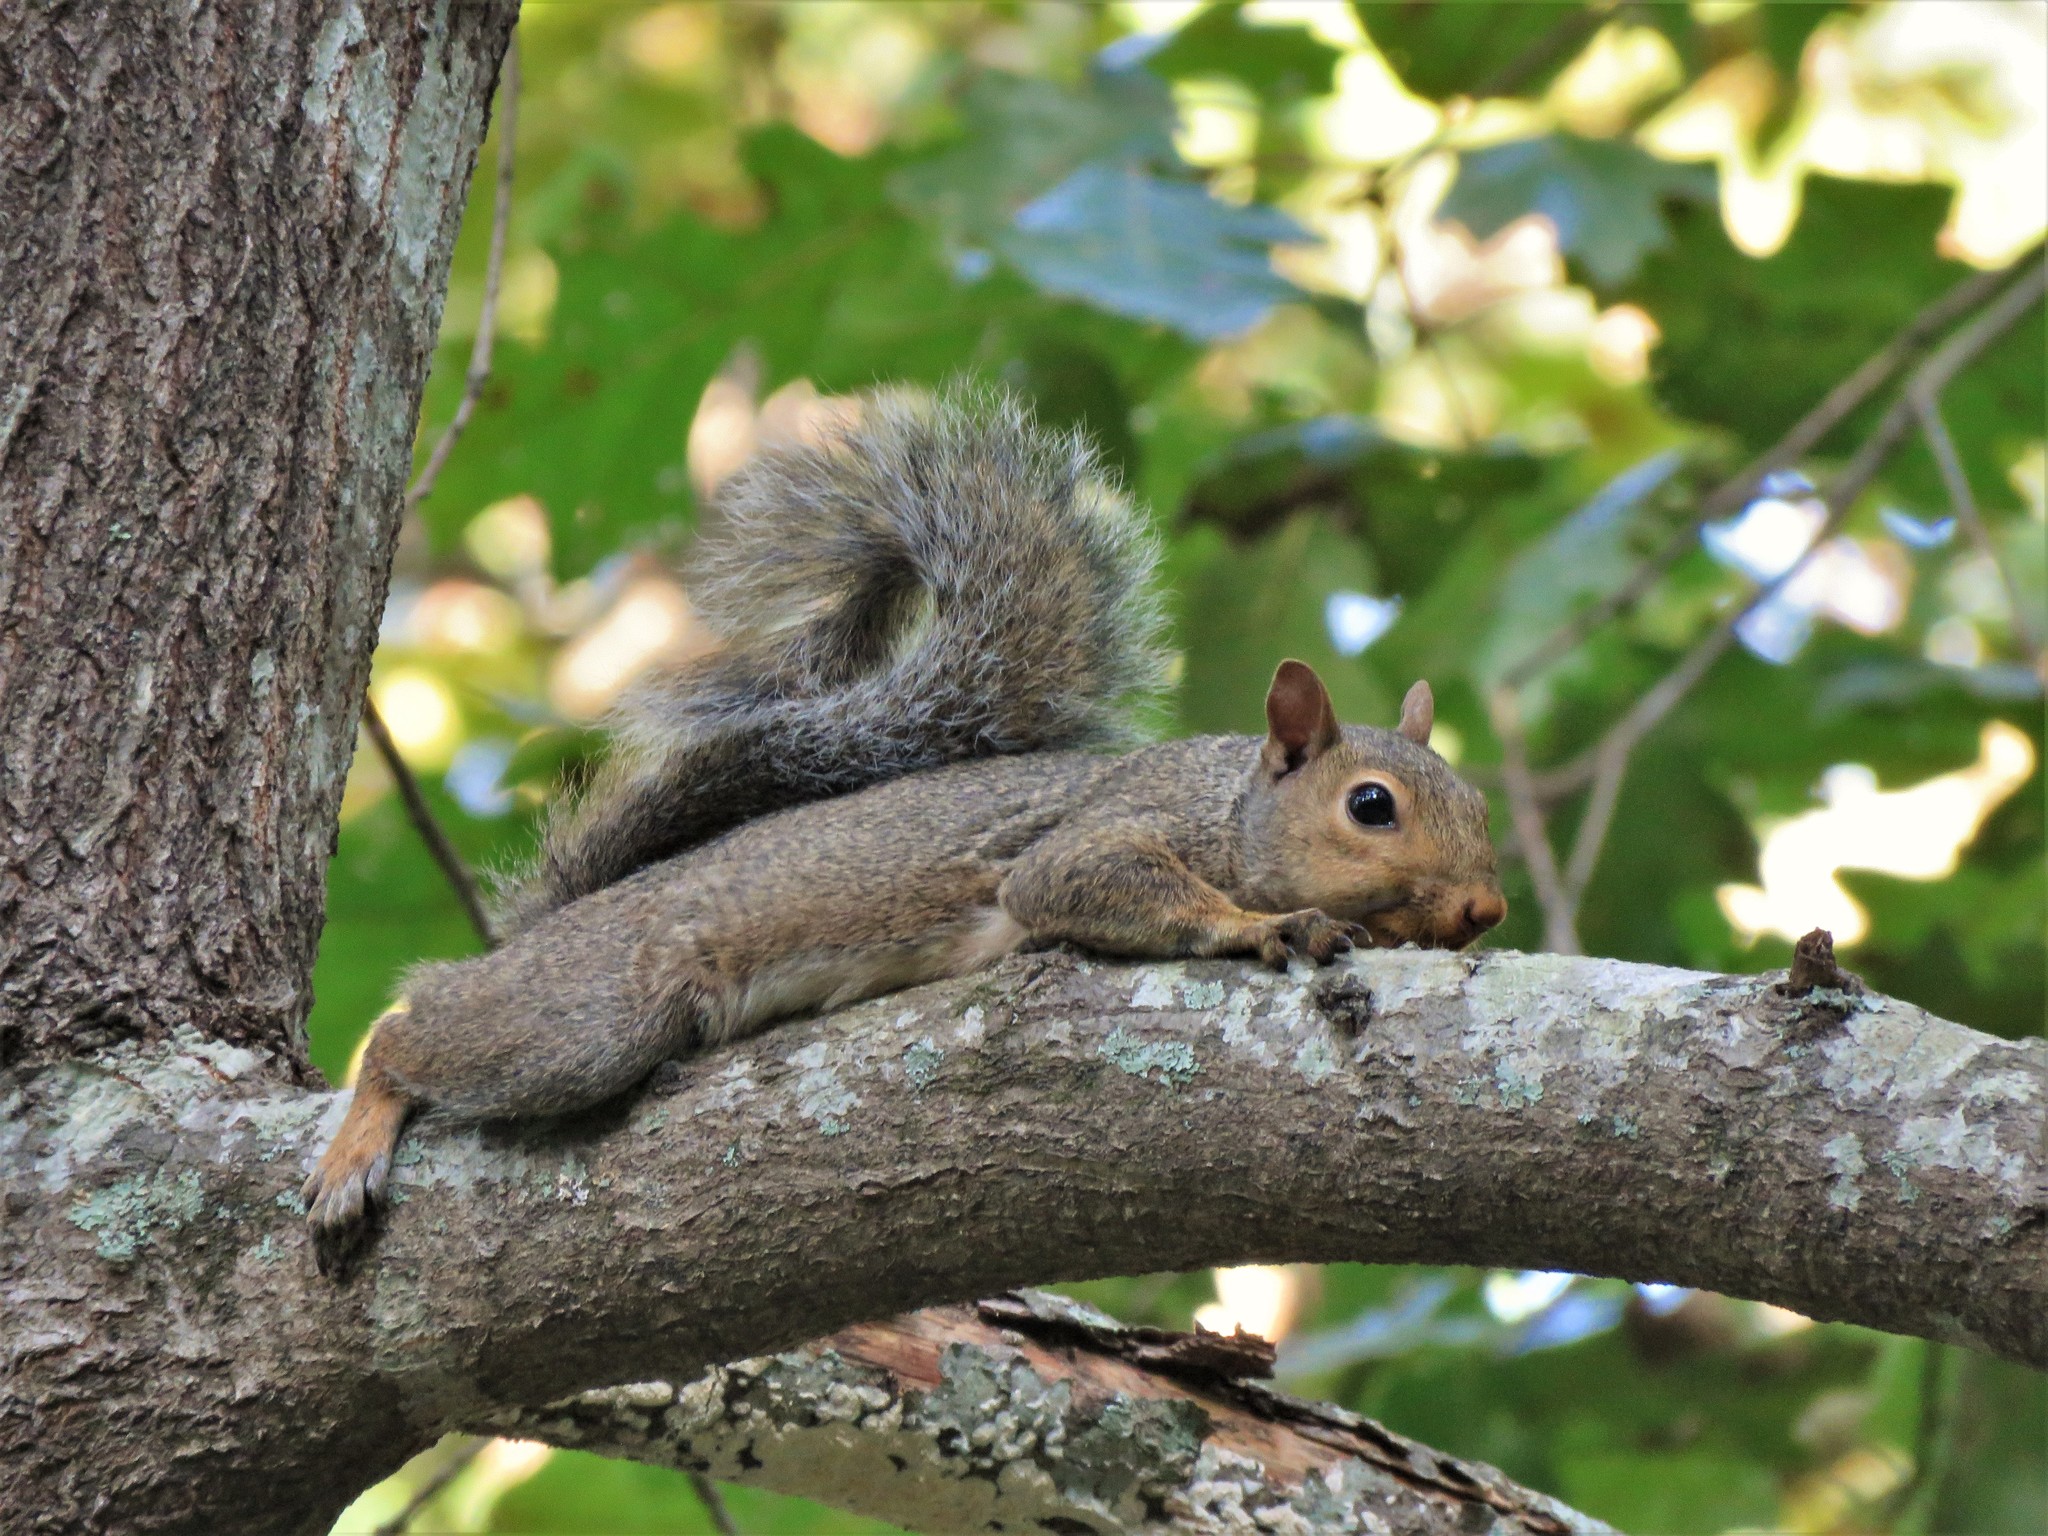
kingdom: Animalia
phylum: Chordata
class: Mammalia
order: Rodentia
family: Sciuridae
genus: Sciurus
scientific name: Sciurus carolinensis
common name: Eastern gray squirrel
